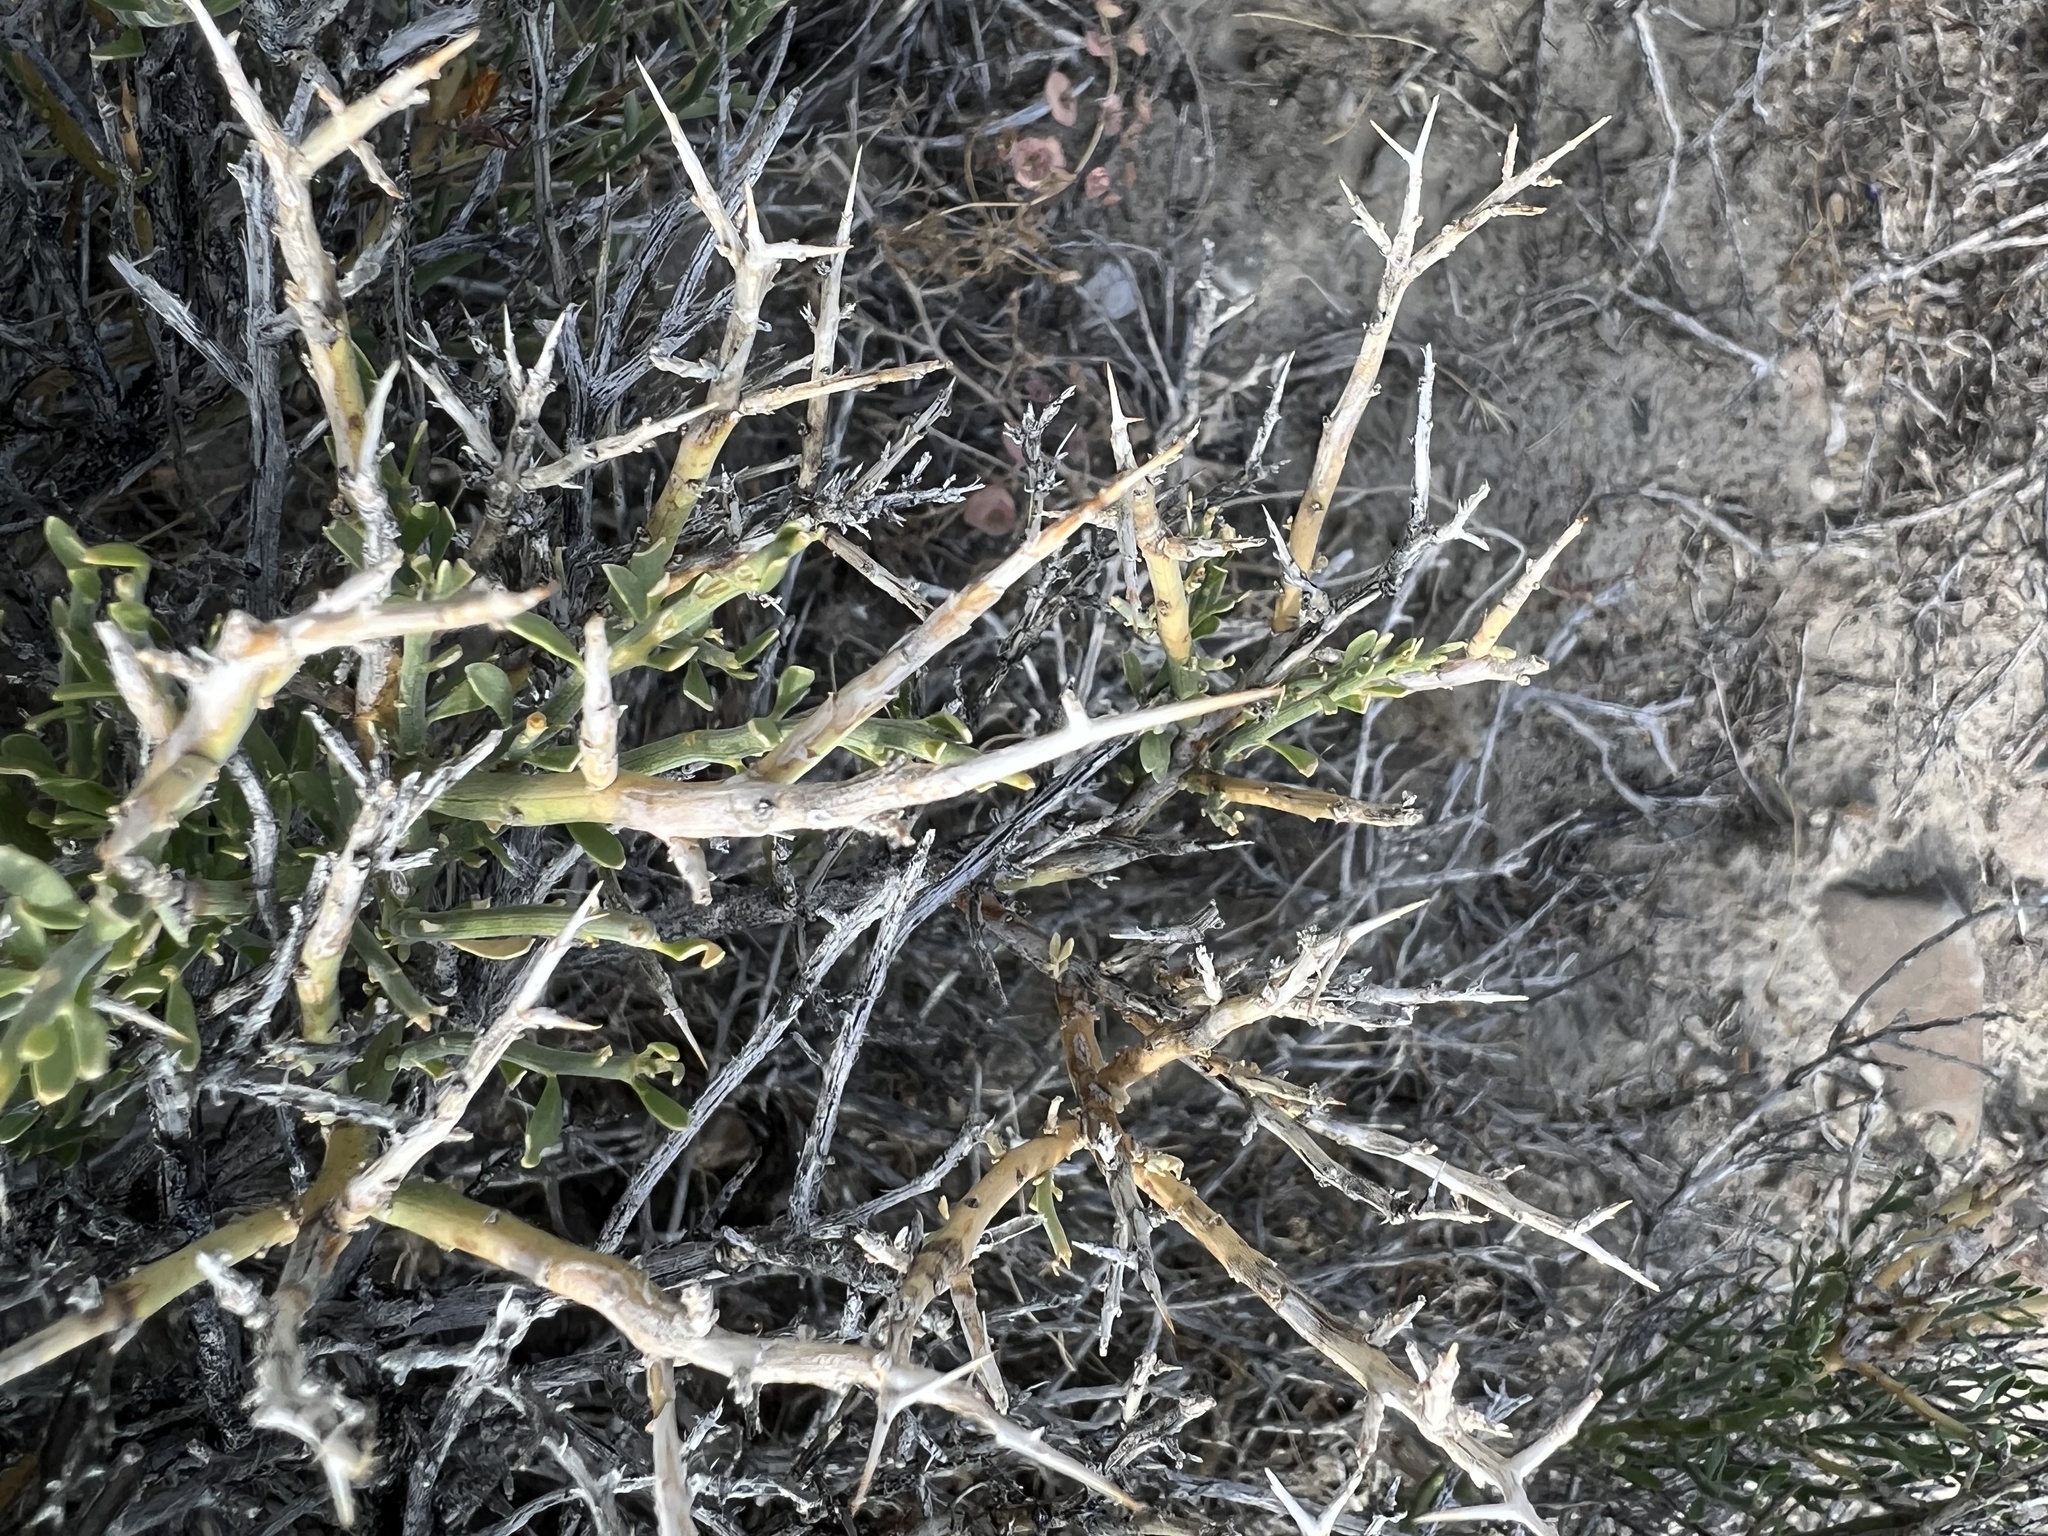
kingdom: Plantae
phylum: Tracheophyta
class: Magnoliopsida
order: Lamiales
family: Oleaceae
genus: Menodora
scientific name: Menodora spinescens
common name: Spiny menodora
